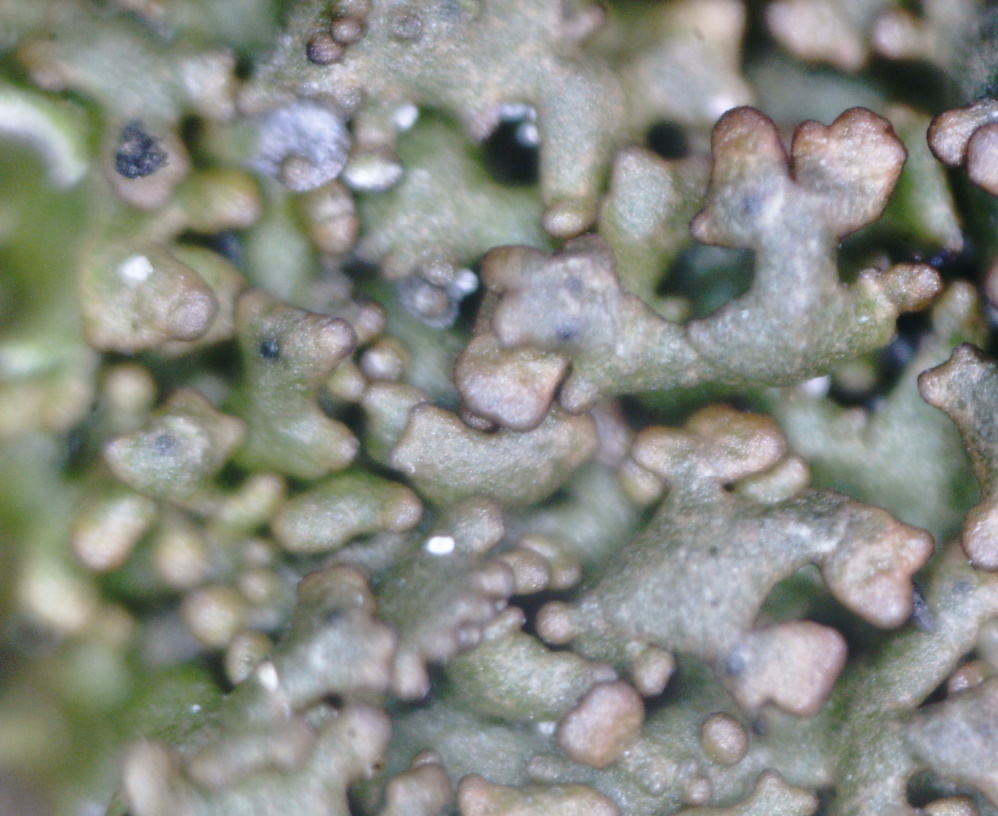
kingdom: Fungi
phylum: Ascomycota
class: Lecanoromycetes
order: Lecanorales
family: Parmeliaceae
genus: Montanelia
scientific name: Montanelia panniformis
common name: Shingled camouflage lichen
